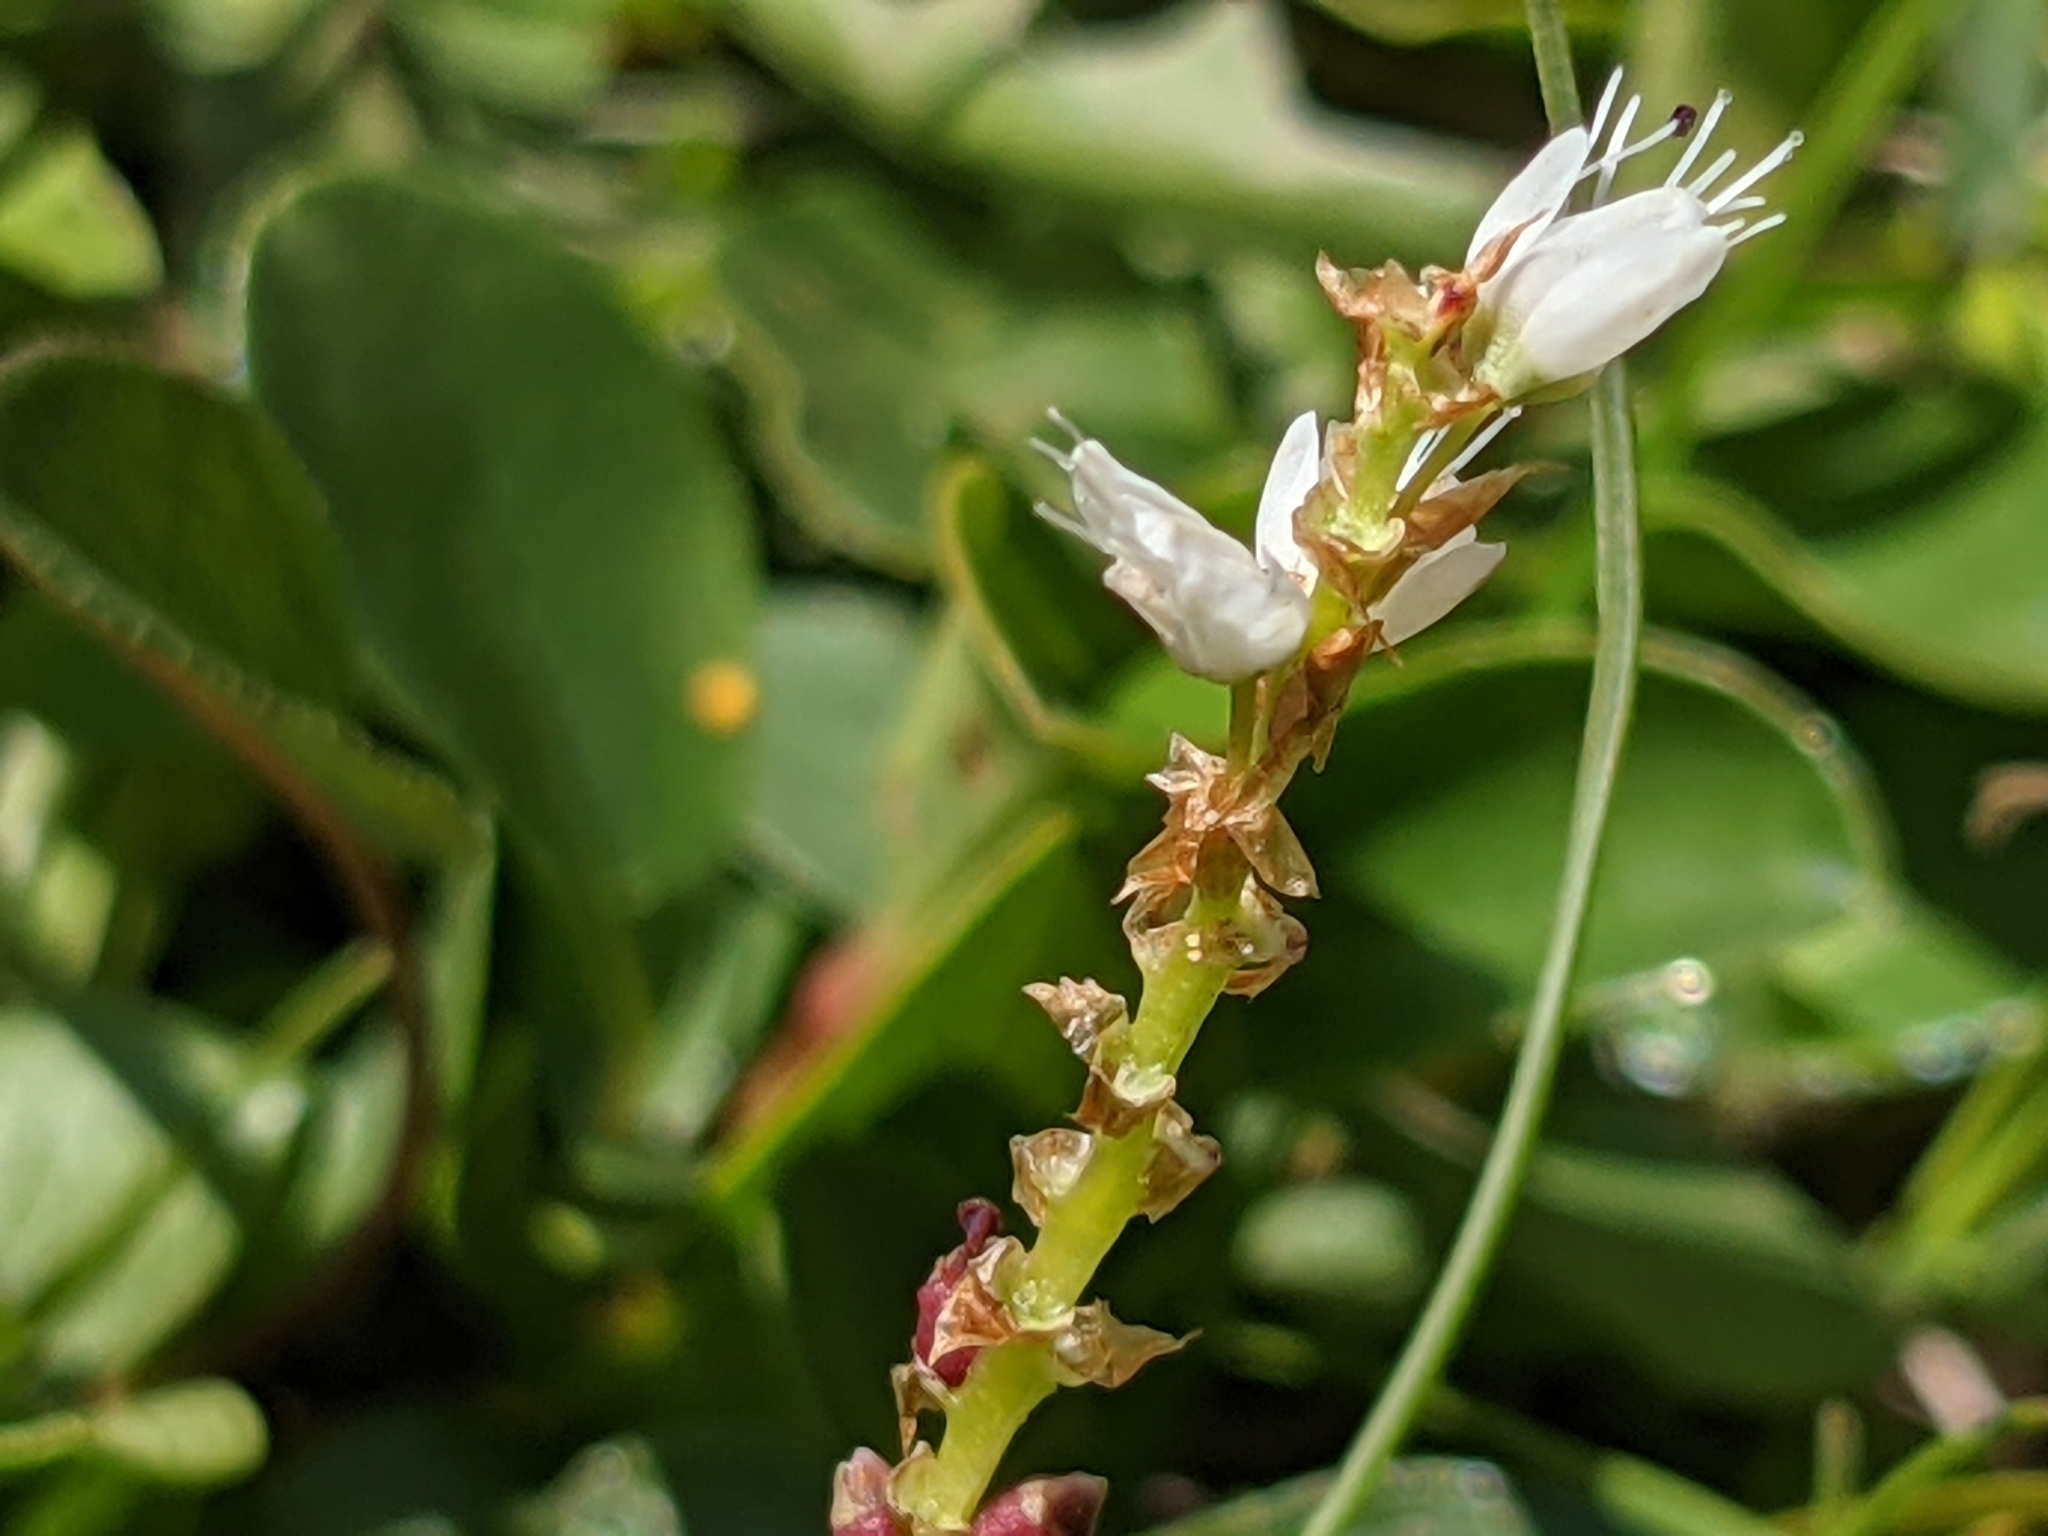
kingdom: Plantae
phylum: Tracheophyta
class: Magnoliopsida
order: Caryophyllales
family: Polygonaceae
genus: Bistorta
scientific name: Bistorta vivipara
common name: Alpine bistort
